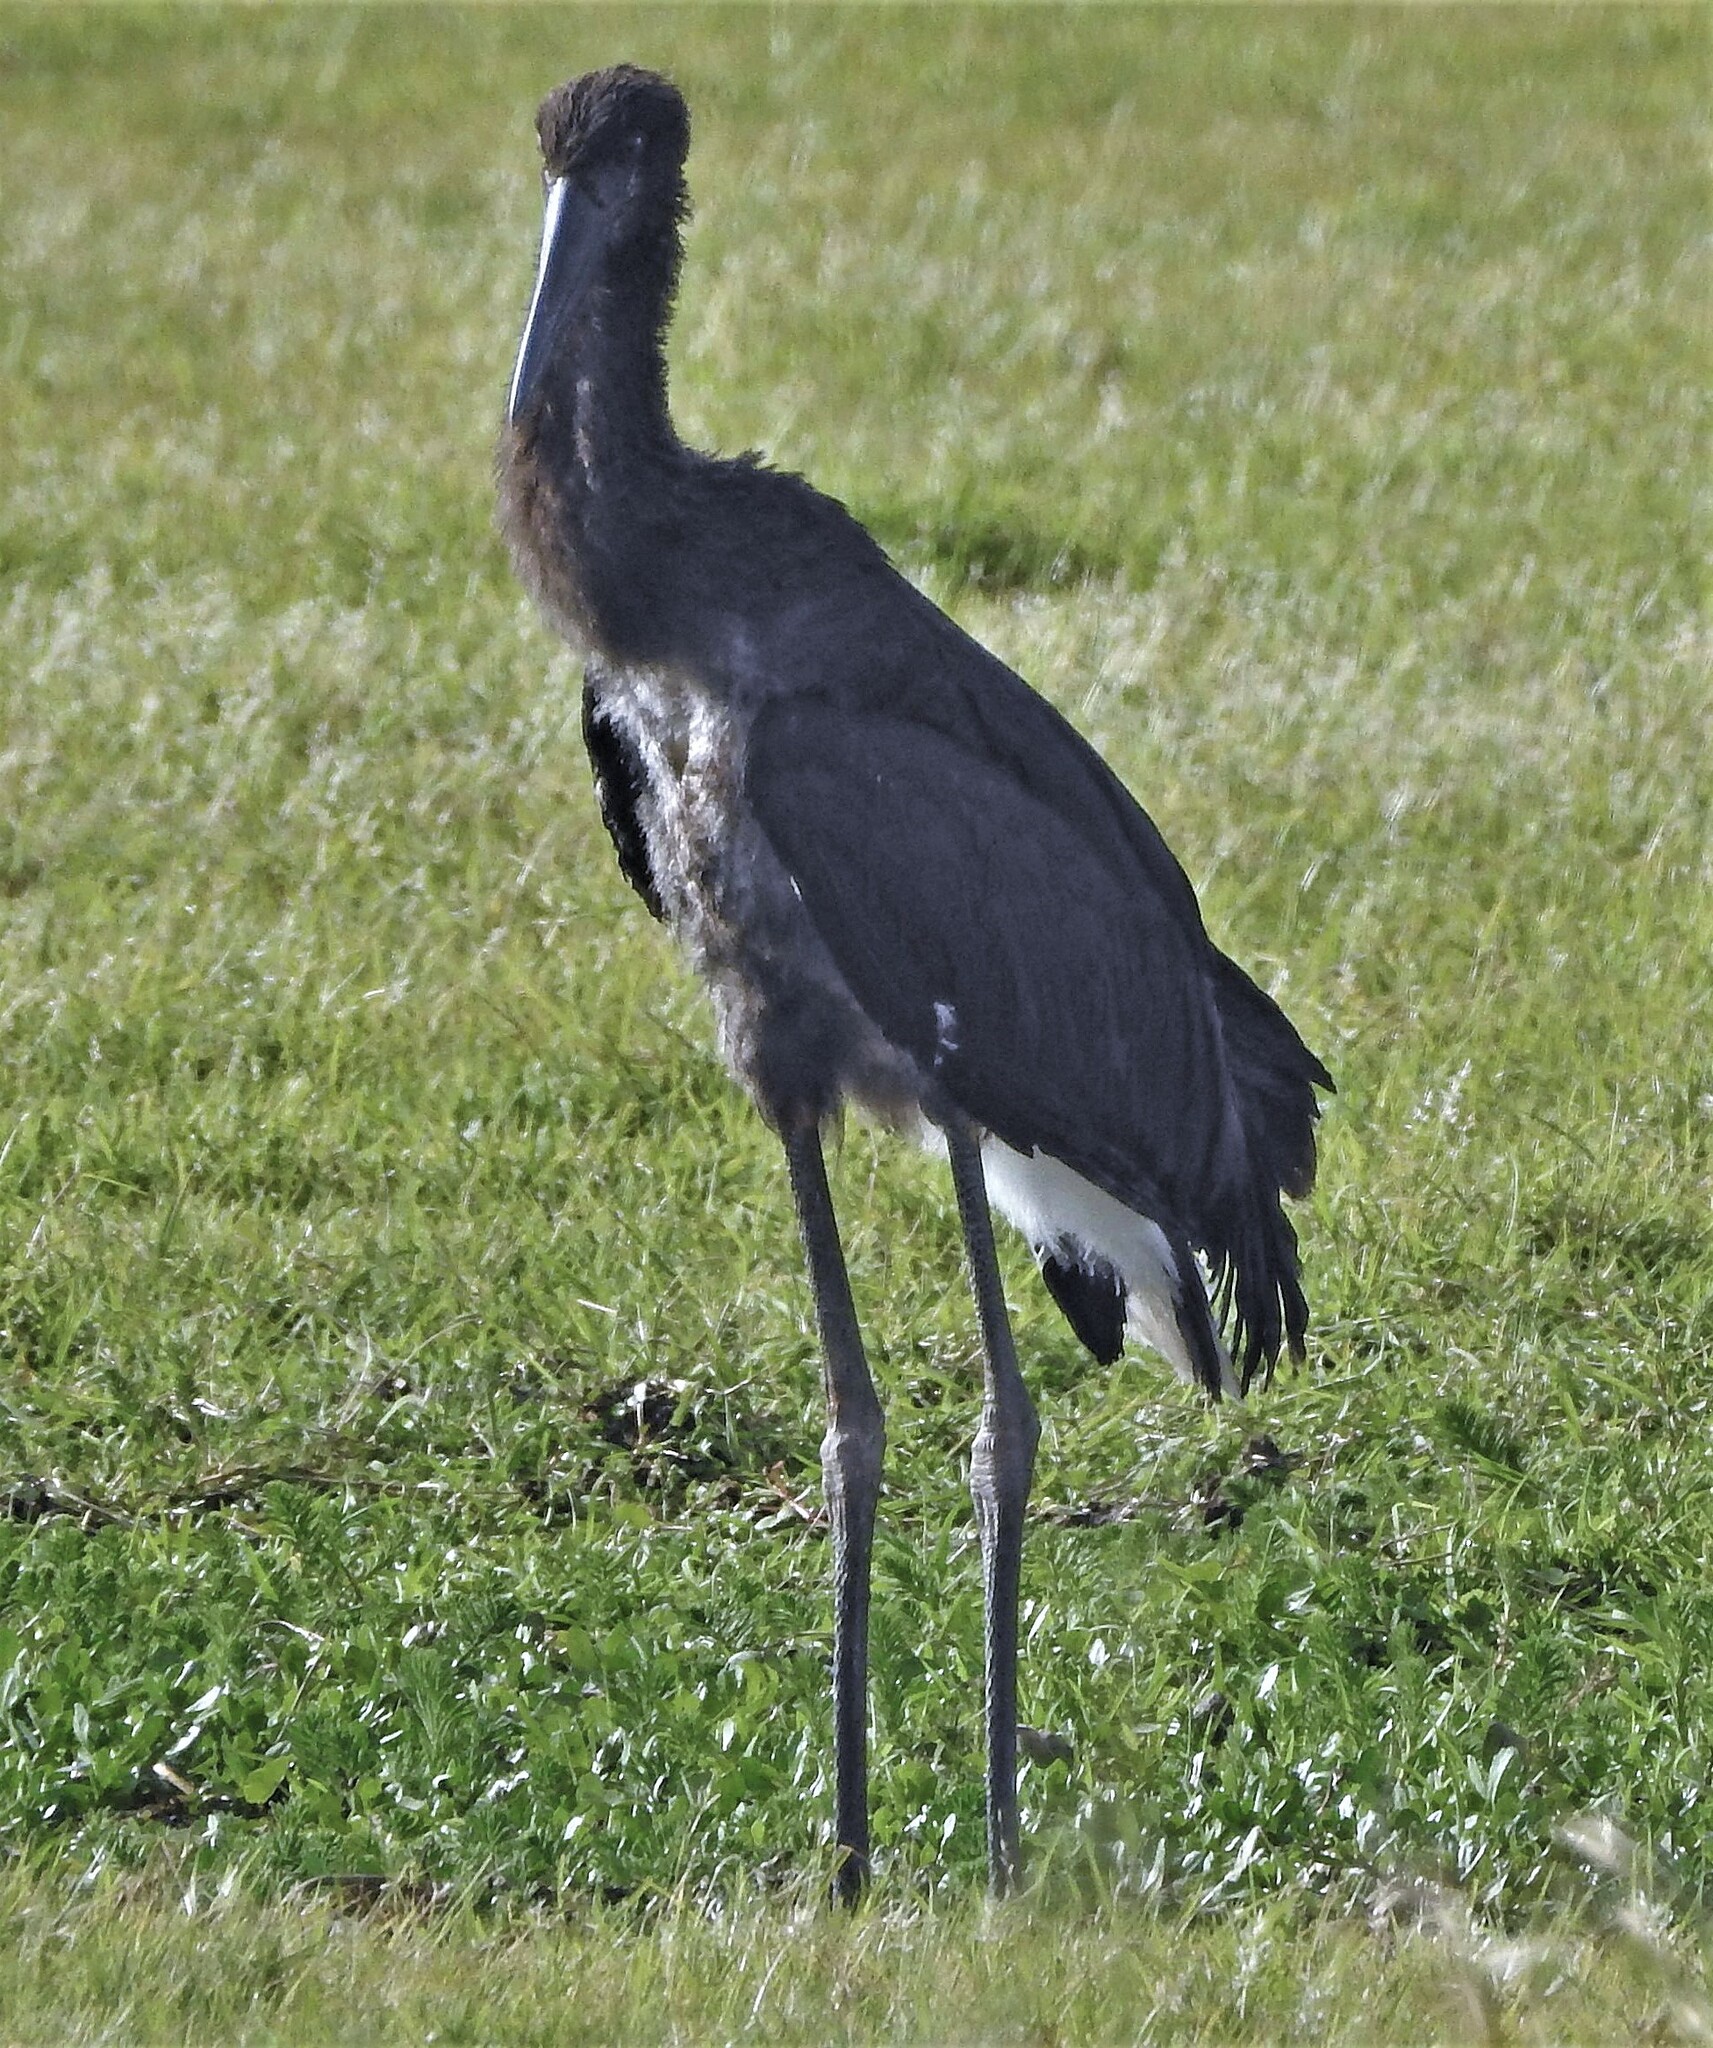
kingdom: Animalia
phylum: Chordata
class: Aves
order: Ciconiiformes
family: Ciconiidae
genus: Ciconia
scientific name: Ciconia maguari
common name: Maguari stork
